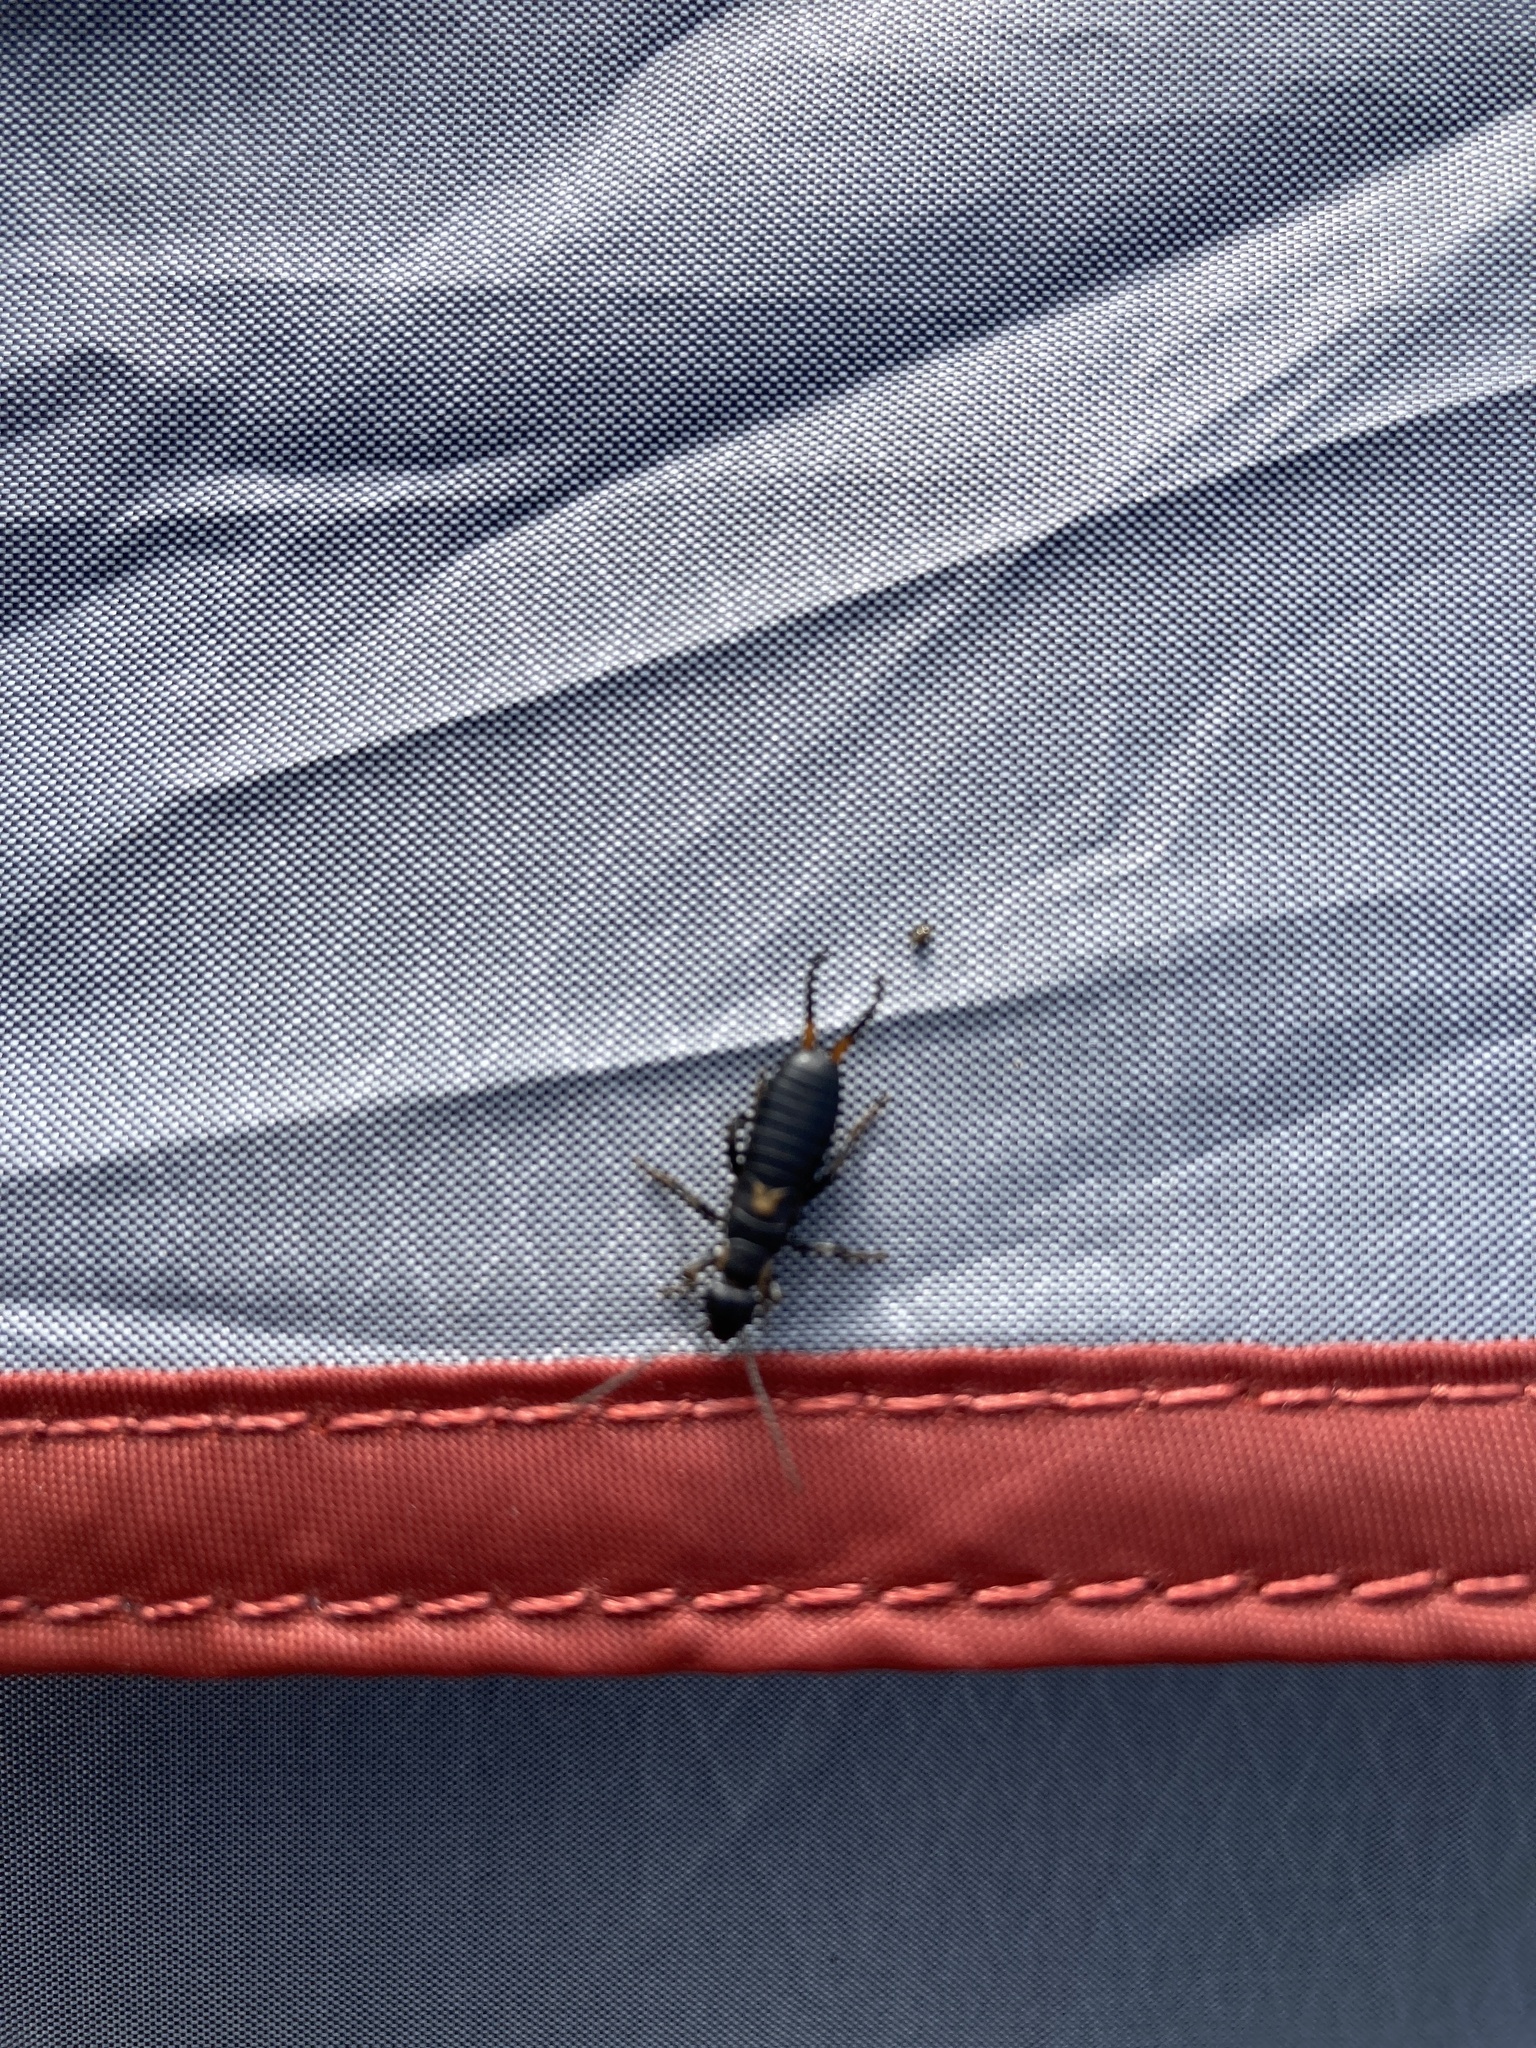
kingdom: Animalia
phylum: Arthropoda
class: Insecta
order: Dermaptera
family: Forficulidae
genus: Anechura
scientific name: Anechura bipunctata
